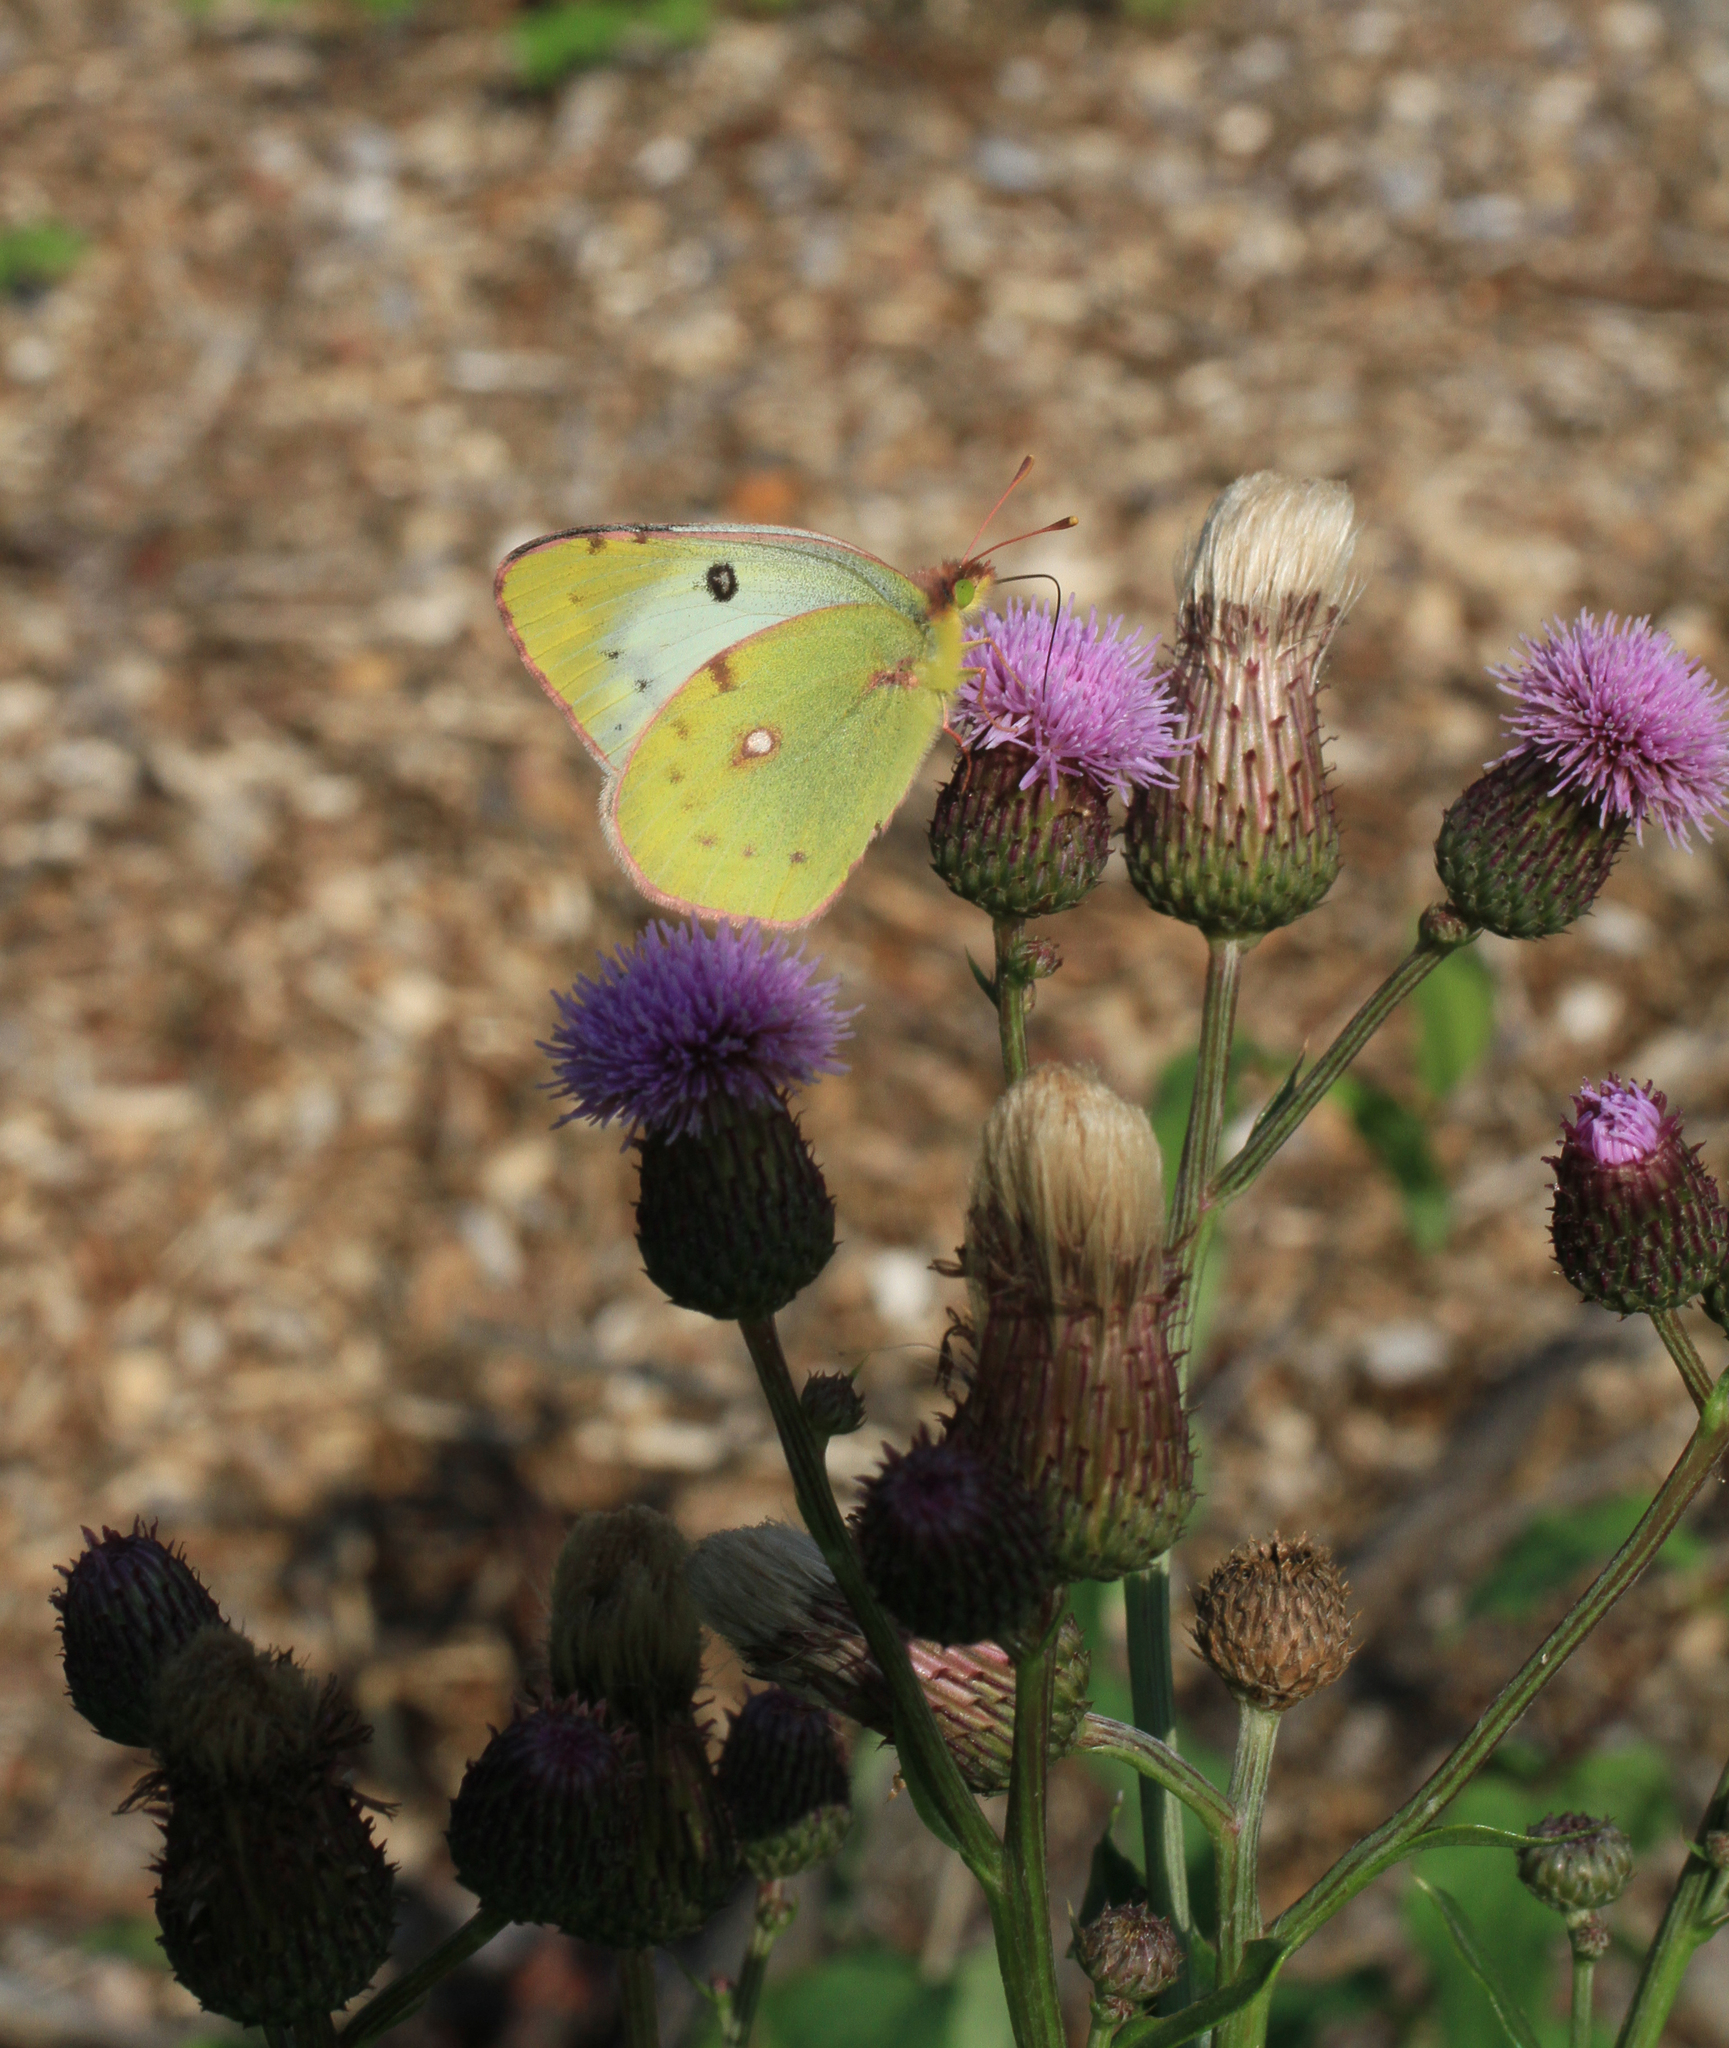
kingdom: Plantae
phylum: Tracheophyta
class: Magnoliopsida
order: Asterales
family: Asteraceae
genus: Cirsium
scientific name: Cirsium arvense
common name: Creeping thistle
